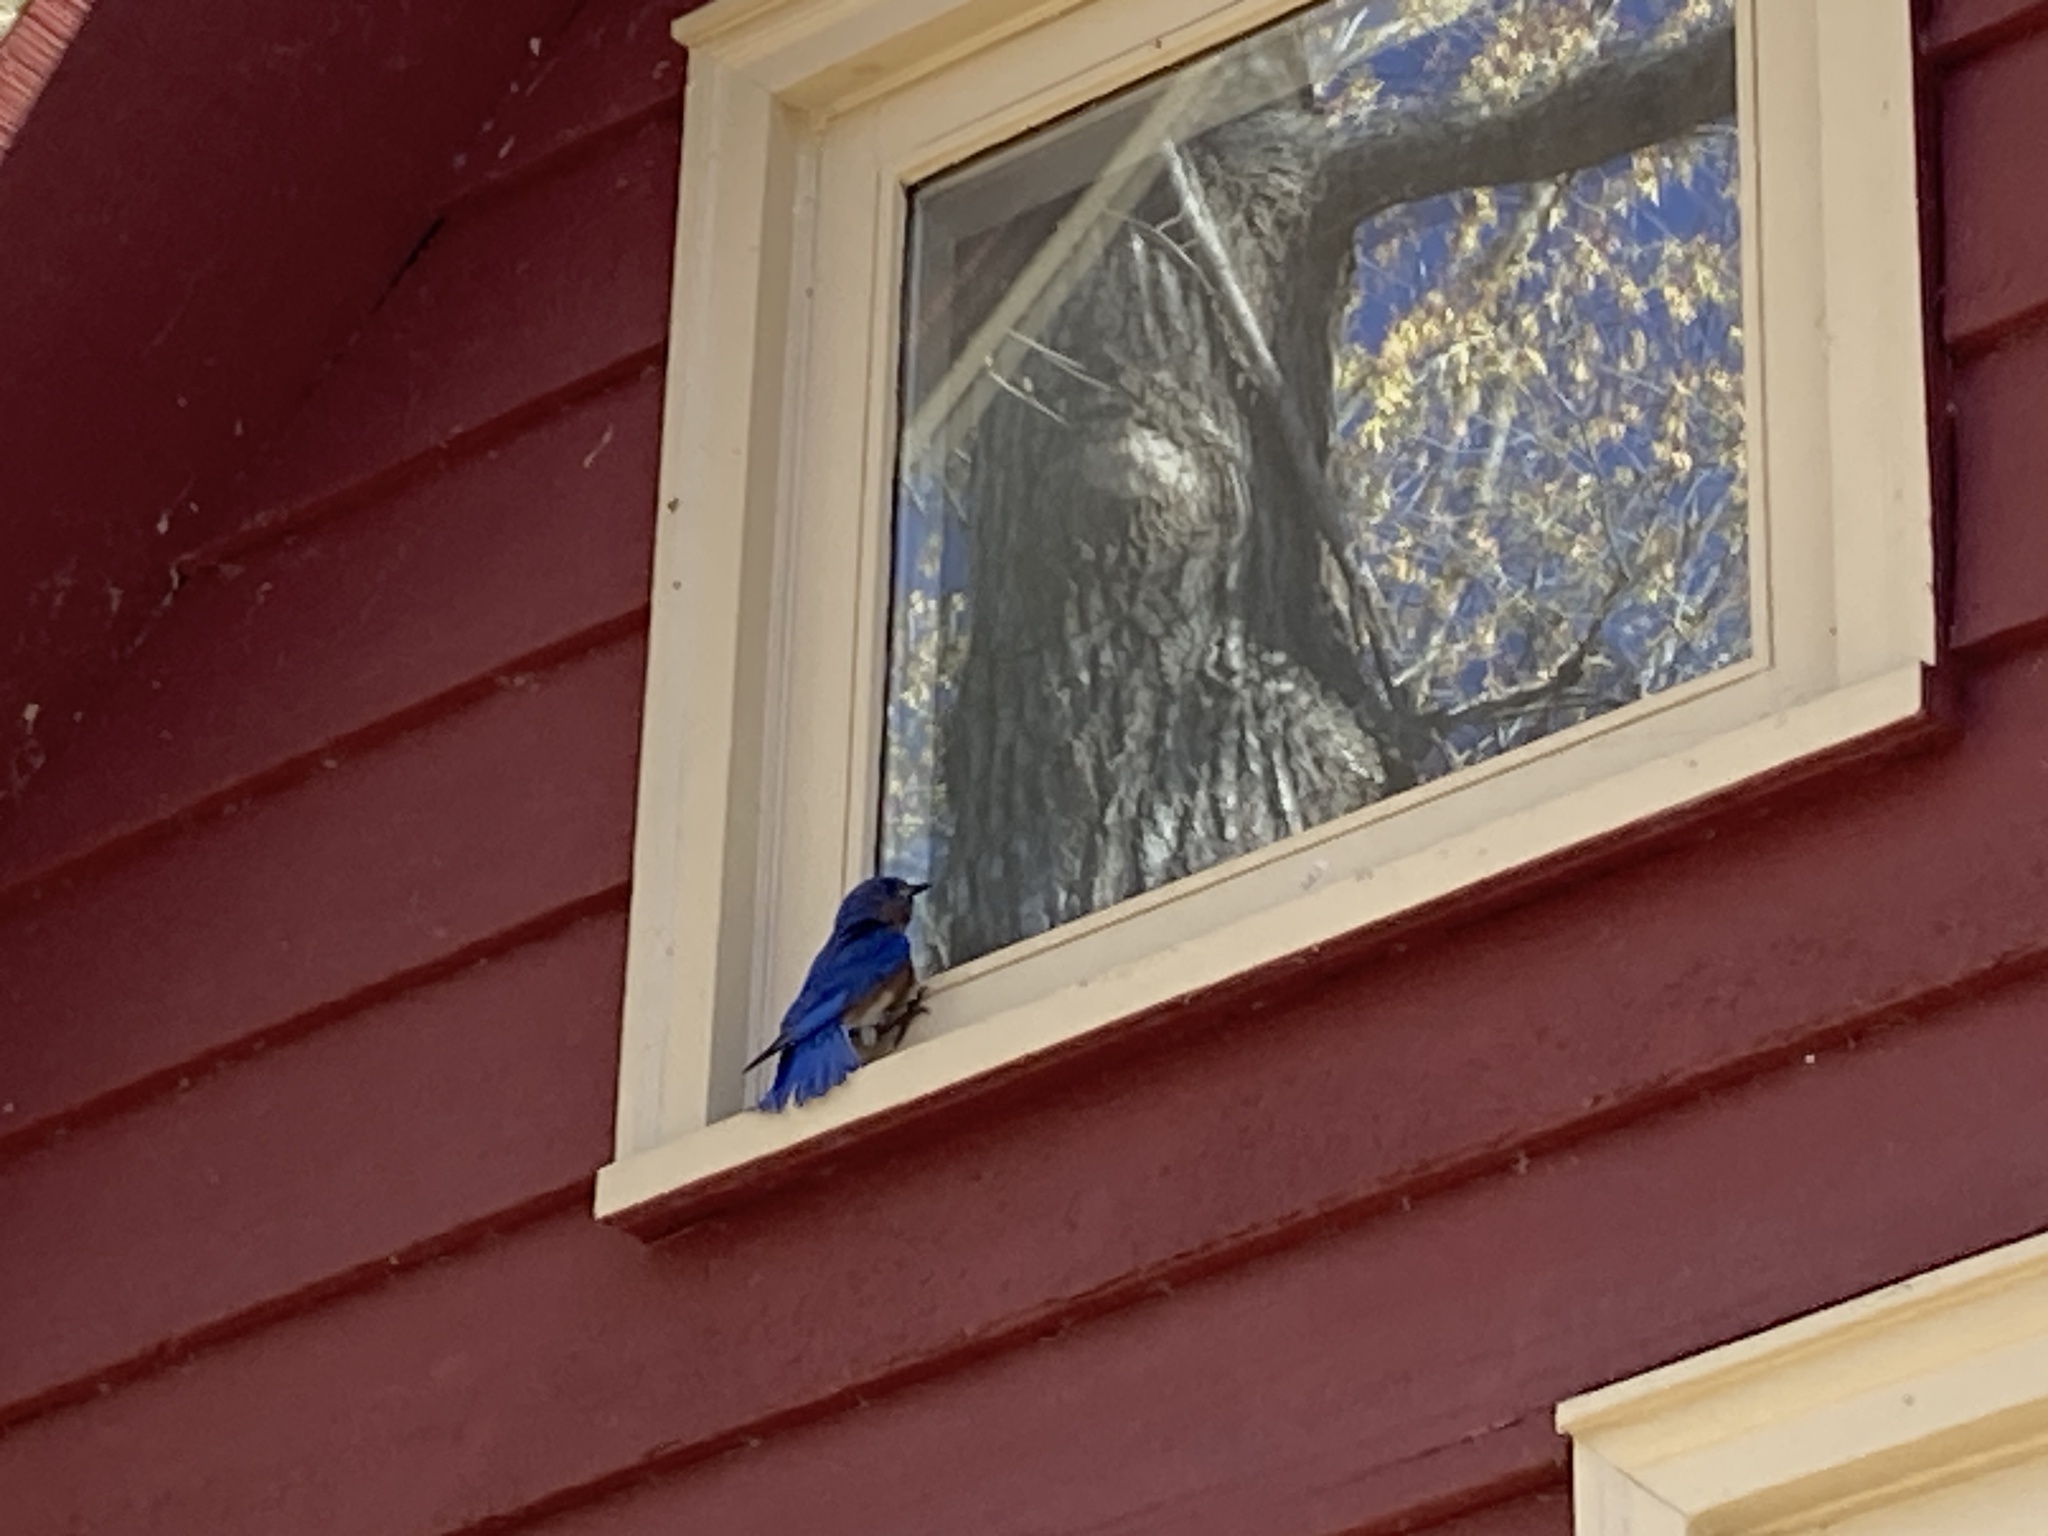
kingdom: Animalia
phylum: Chordata
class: Aves
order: Passeriformes
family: Turdidae
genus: Sialia
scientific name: Sialia sialis
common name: Eastern bluebird
